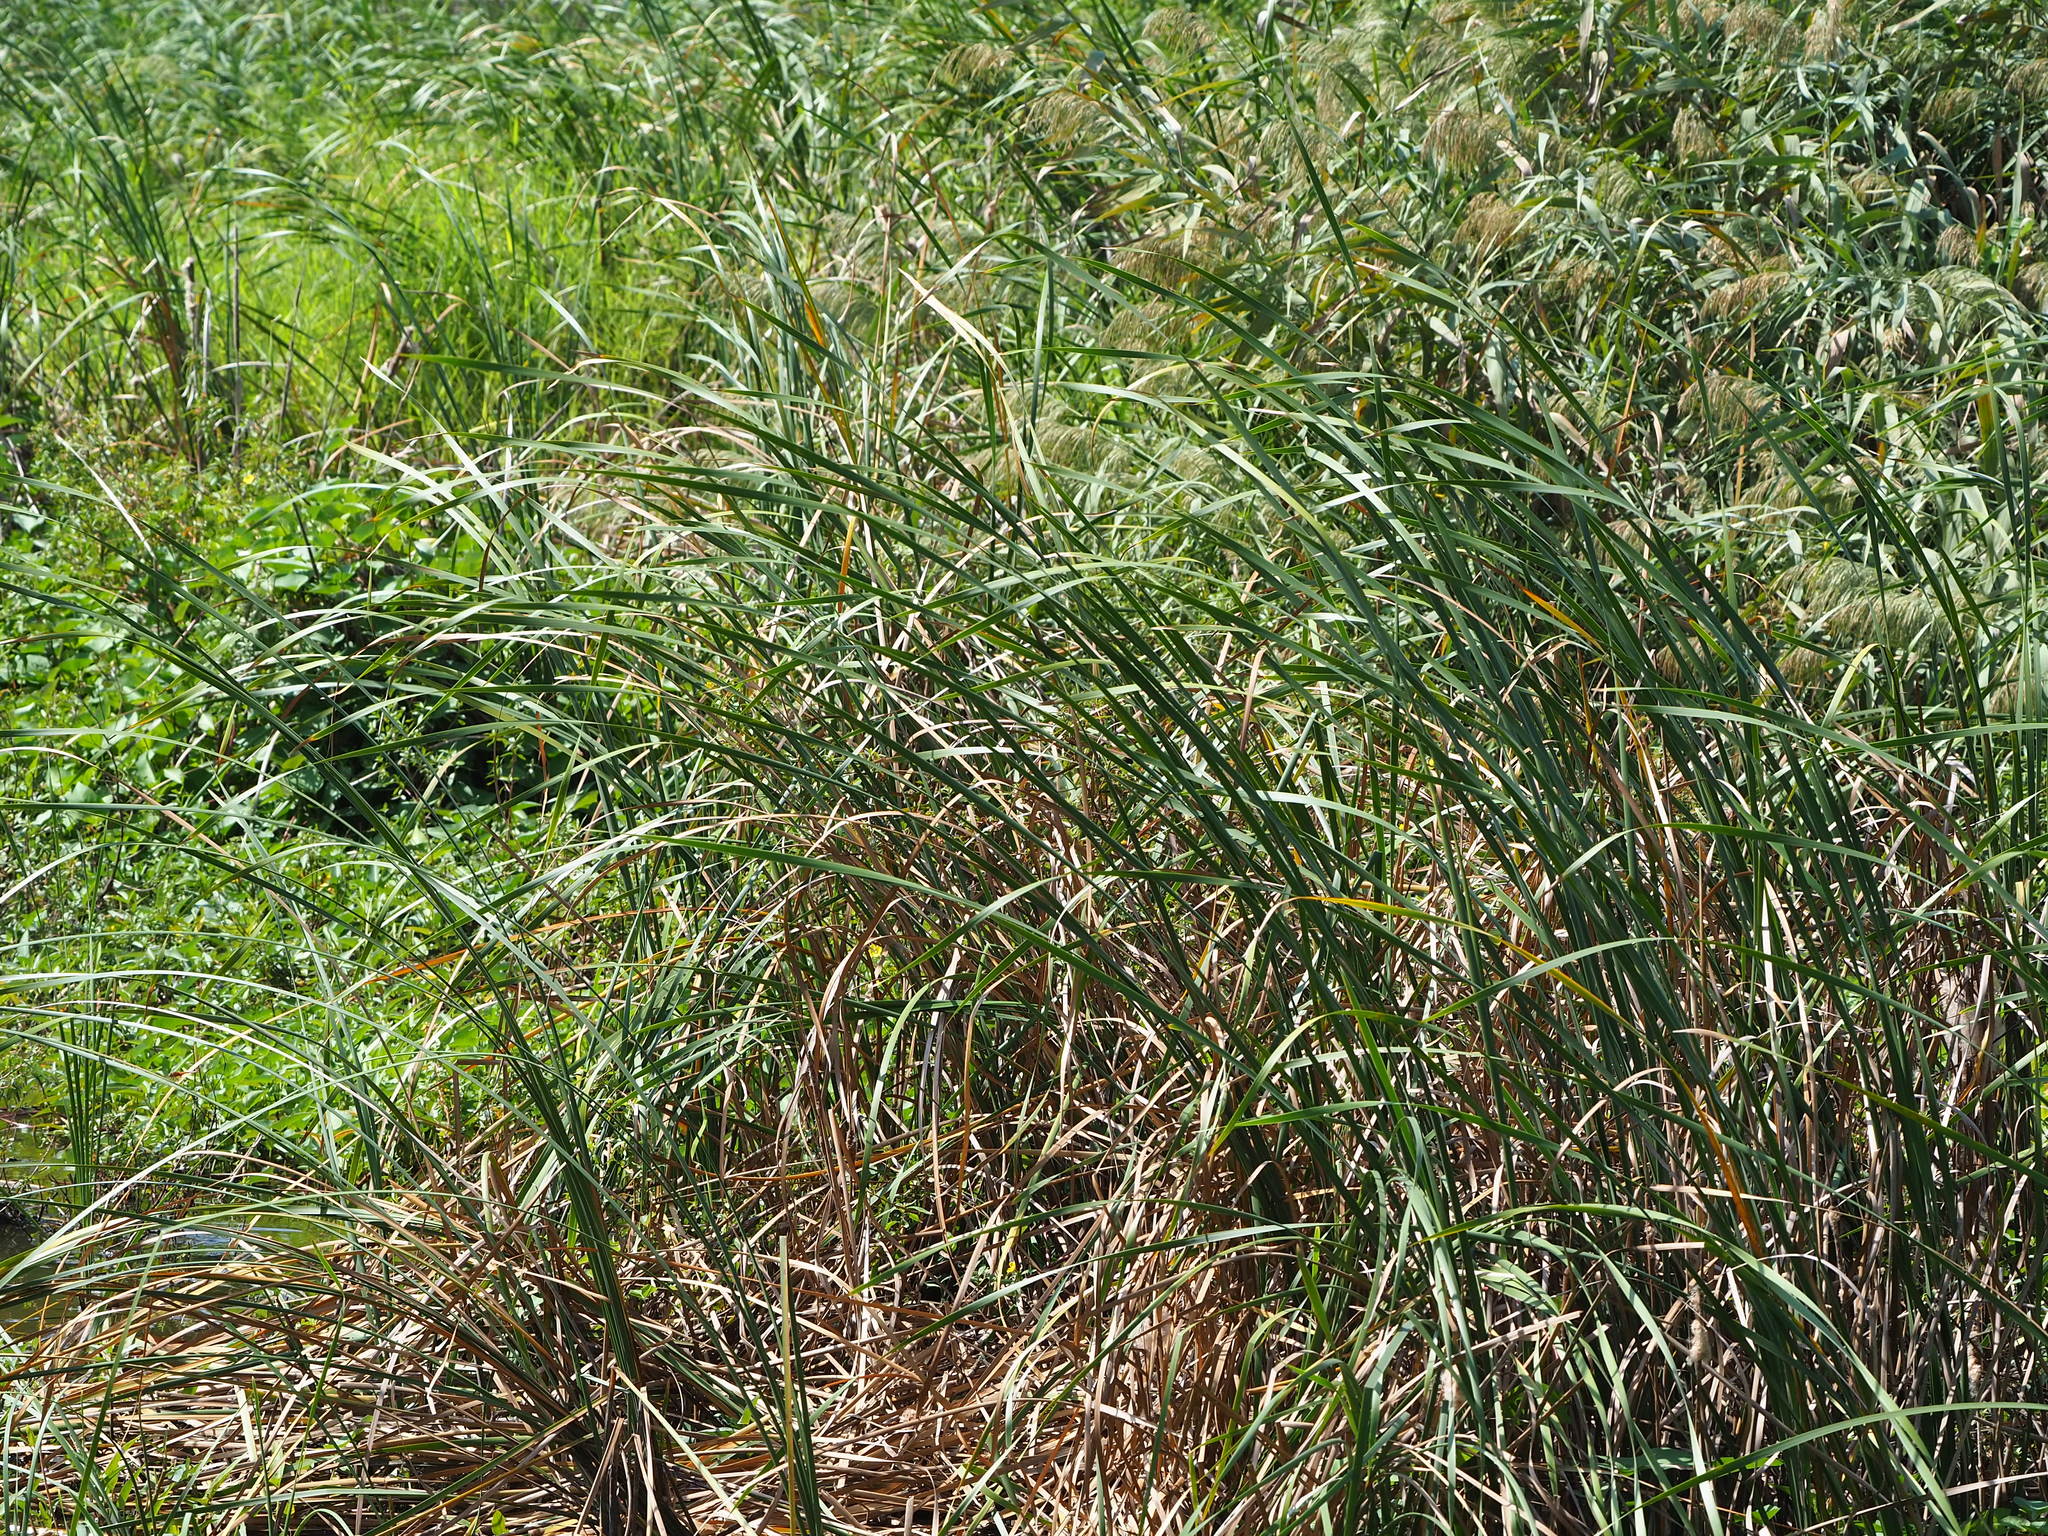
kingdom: Plantae
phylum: Tracheophyta
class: Liliopsida
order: Poales
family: Typhaceae
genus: Typha
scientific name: Typha orientalis
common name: Bullrush
